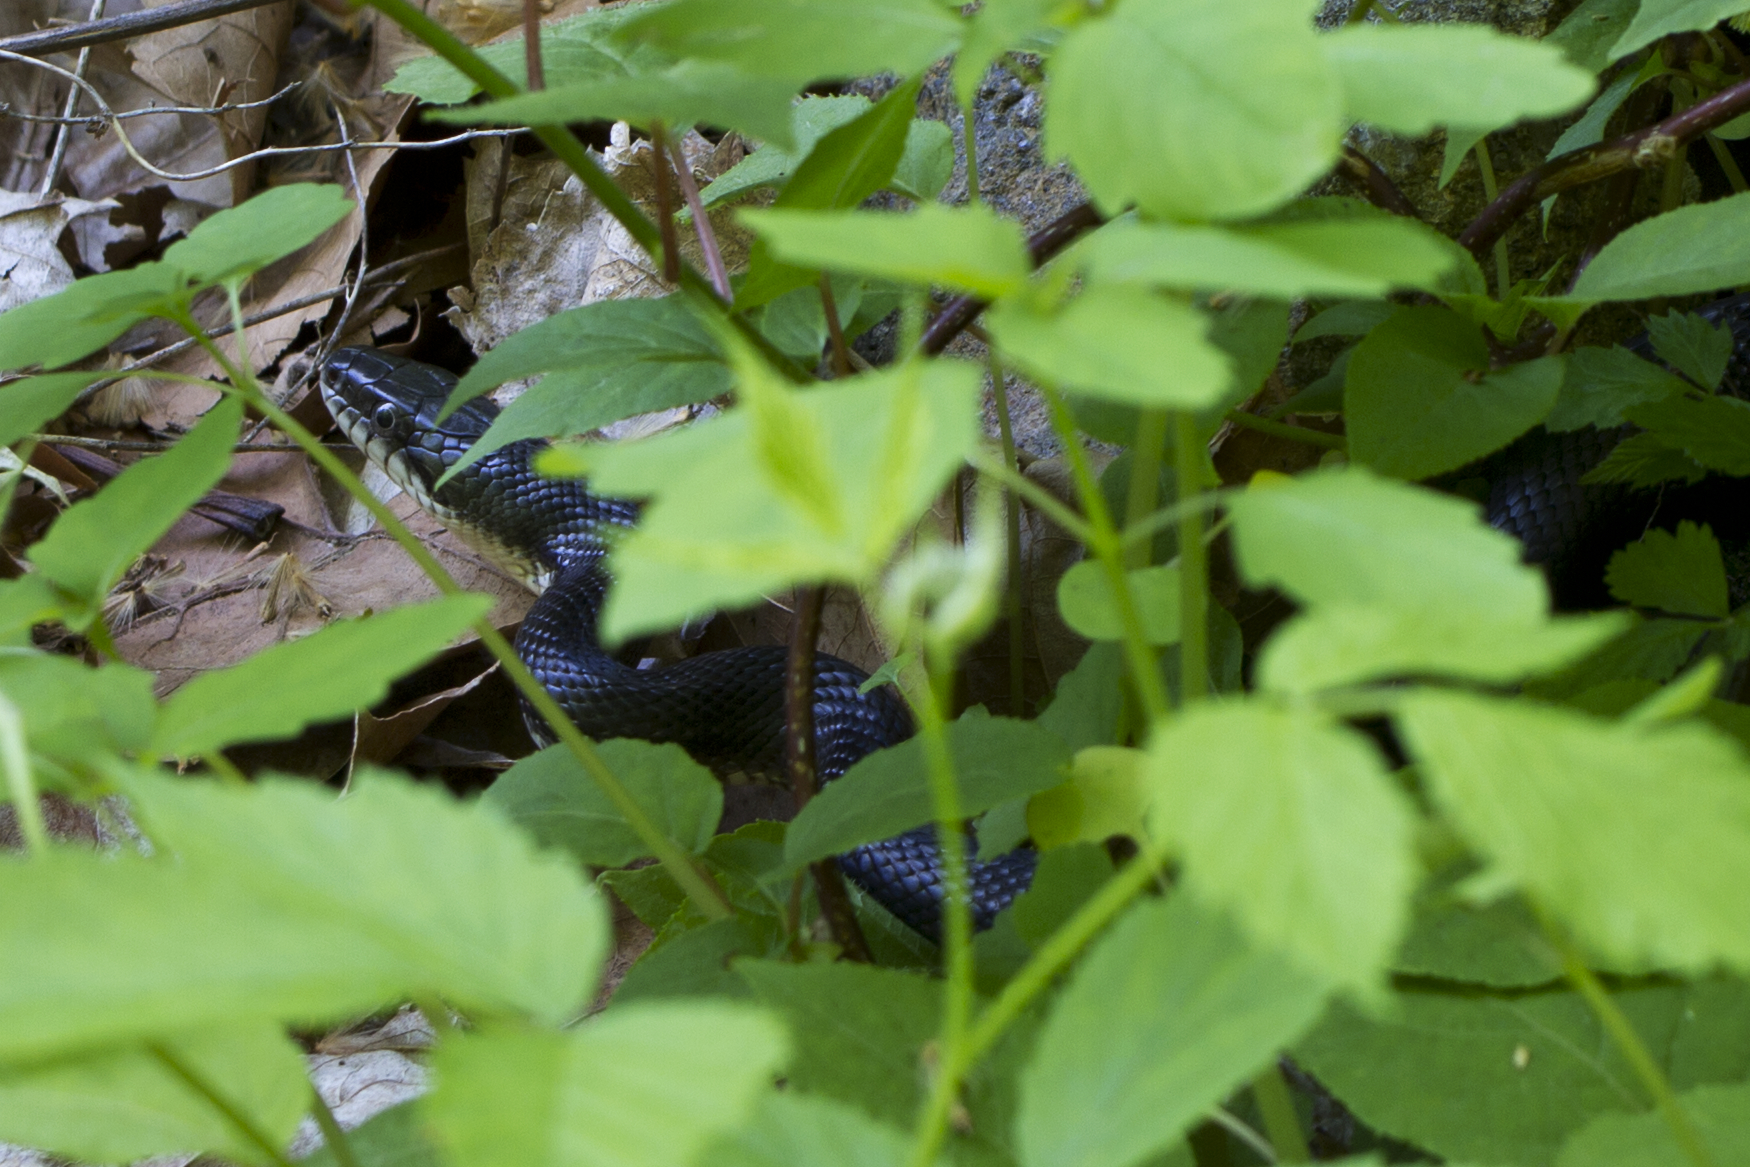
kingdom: Animalia
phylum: Chordata
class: Squamata
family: Colubridae
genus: Pantherophis
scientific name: Pantherophis alleghaniensis
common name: Eastern rat snake
